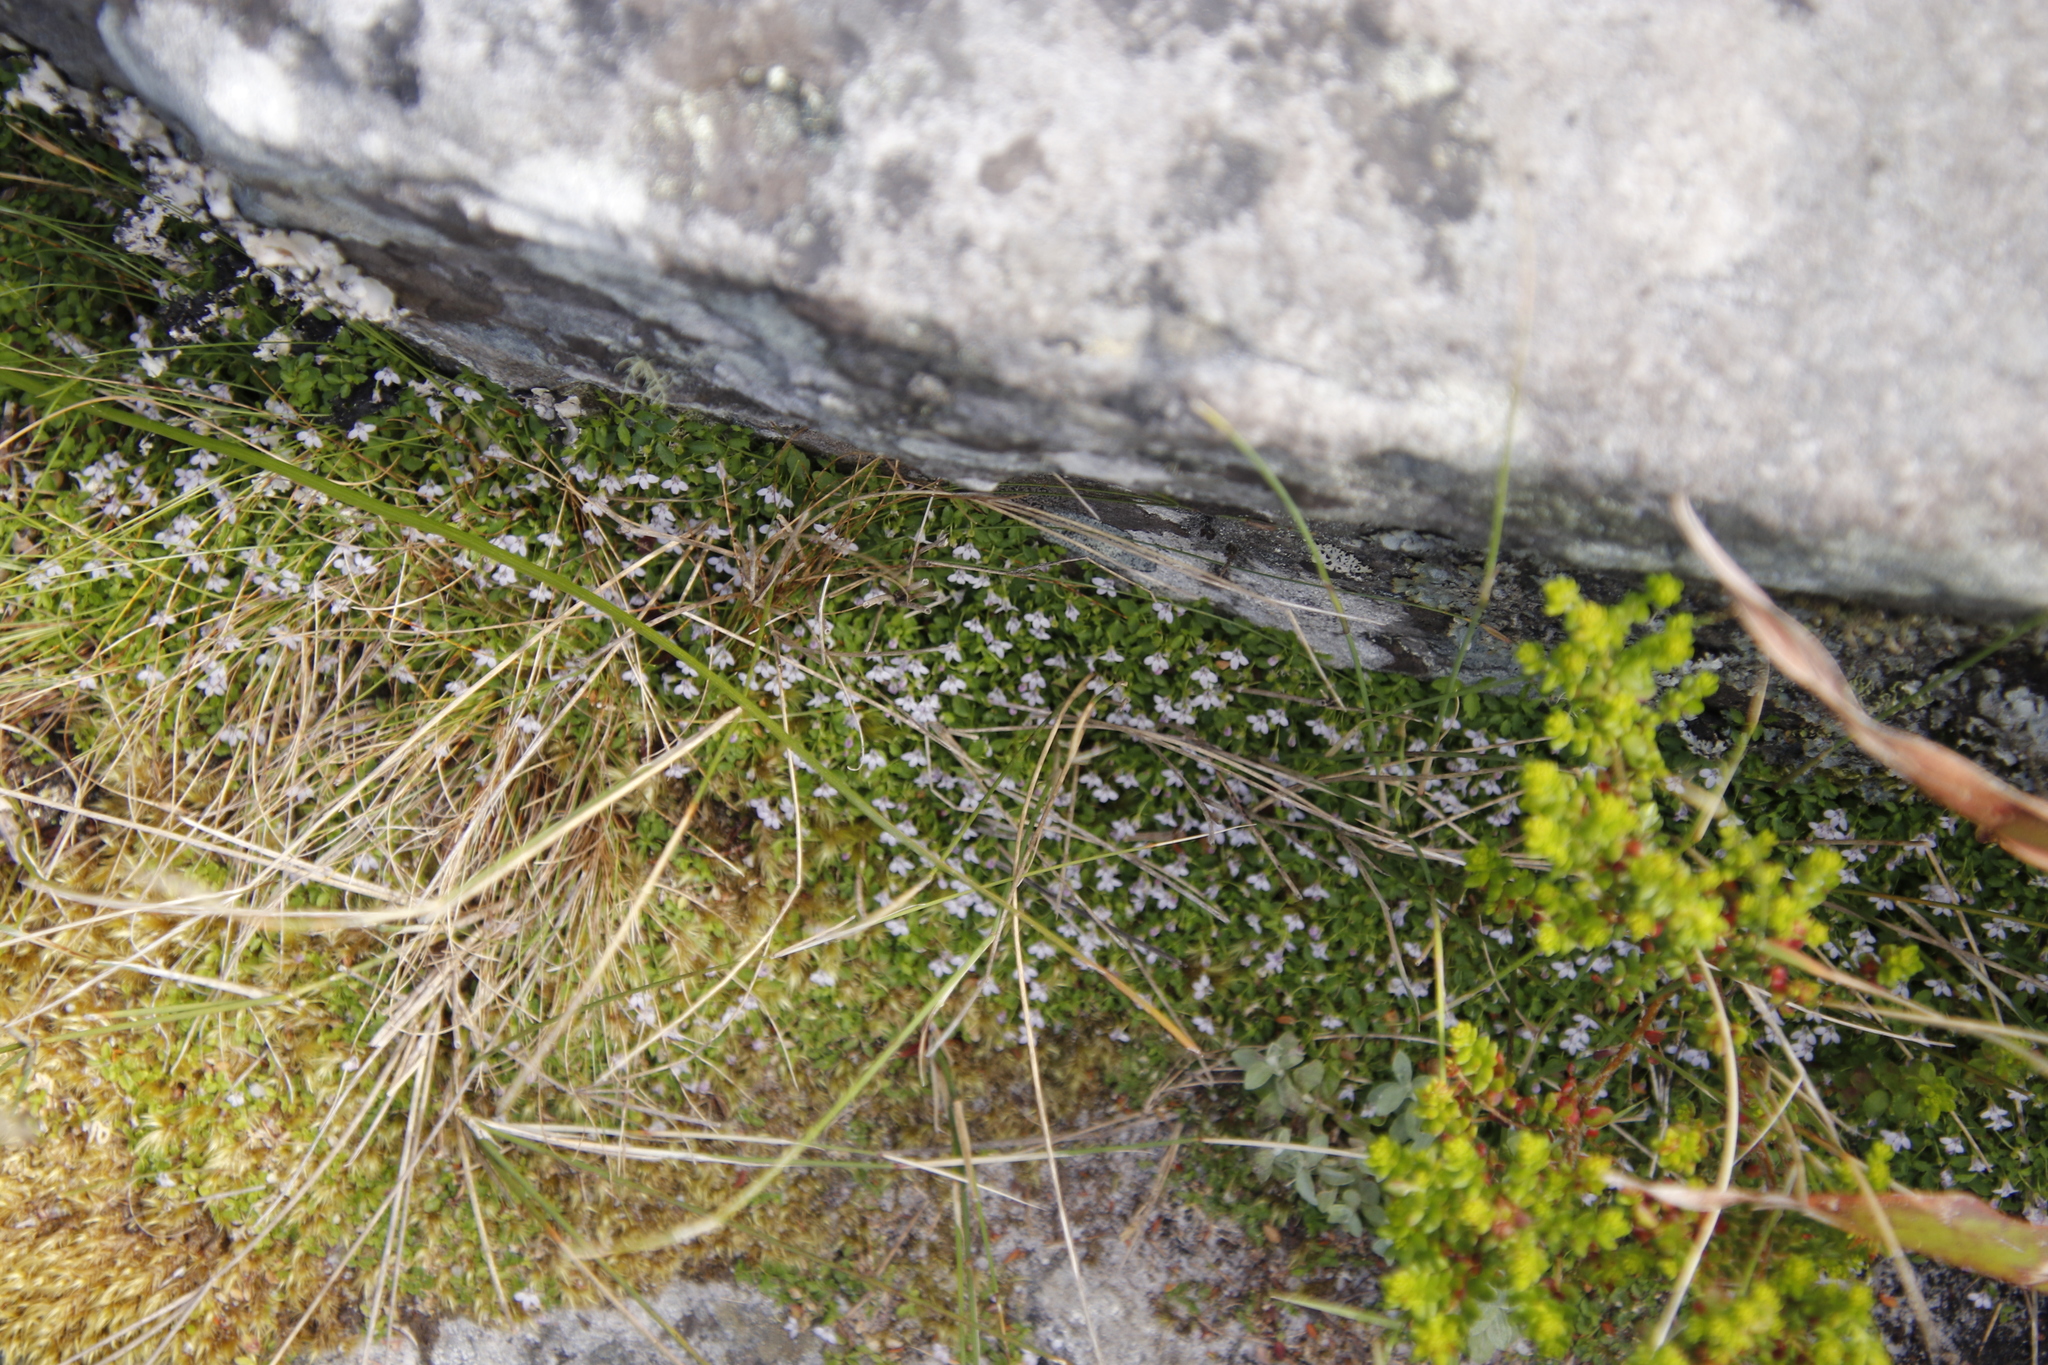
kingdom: Plantae
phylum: Tracheophyta
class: Magnoliopsida
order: Asterales
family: Campanulaceae
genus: Unigenes
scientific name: Unigenes humifusa
